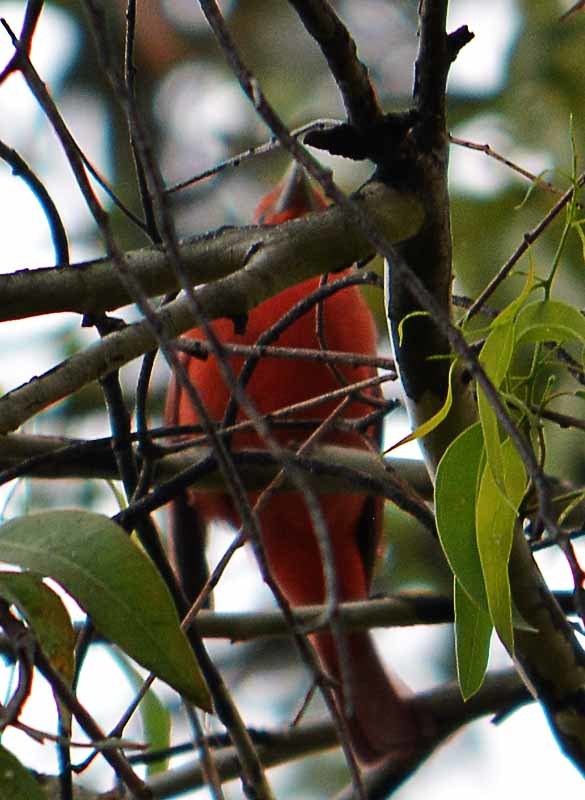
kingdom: Animalia
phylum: Chordata
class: Aves
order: Passeriformes
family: Cardinalidae
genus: Piranga
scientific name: Piranga rubra
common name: Summer tanager
